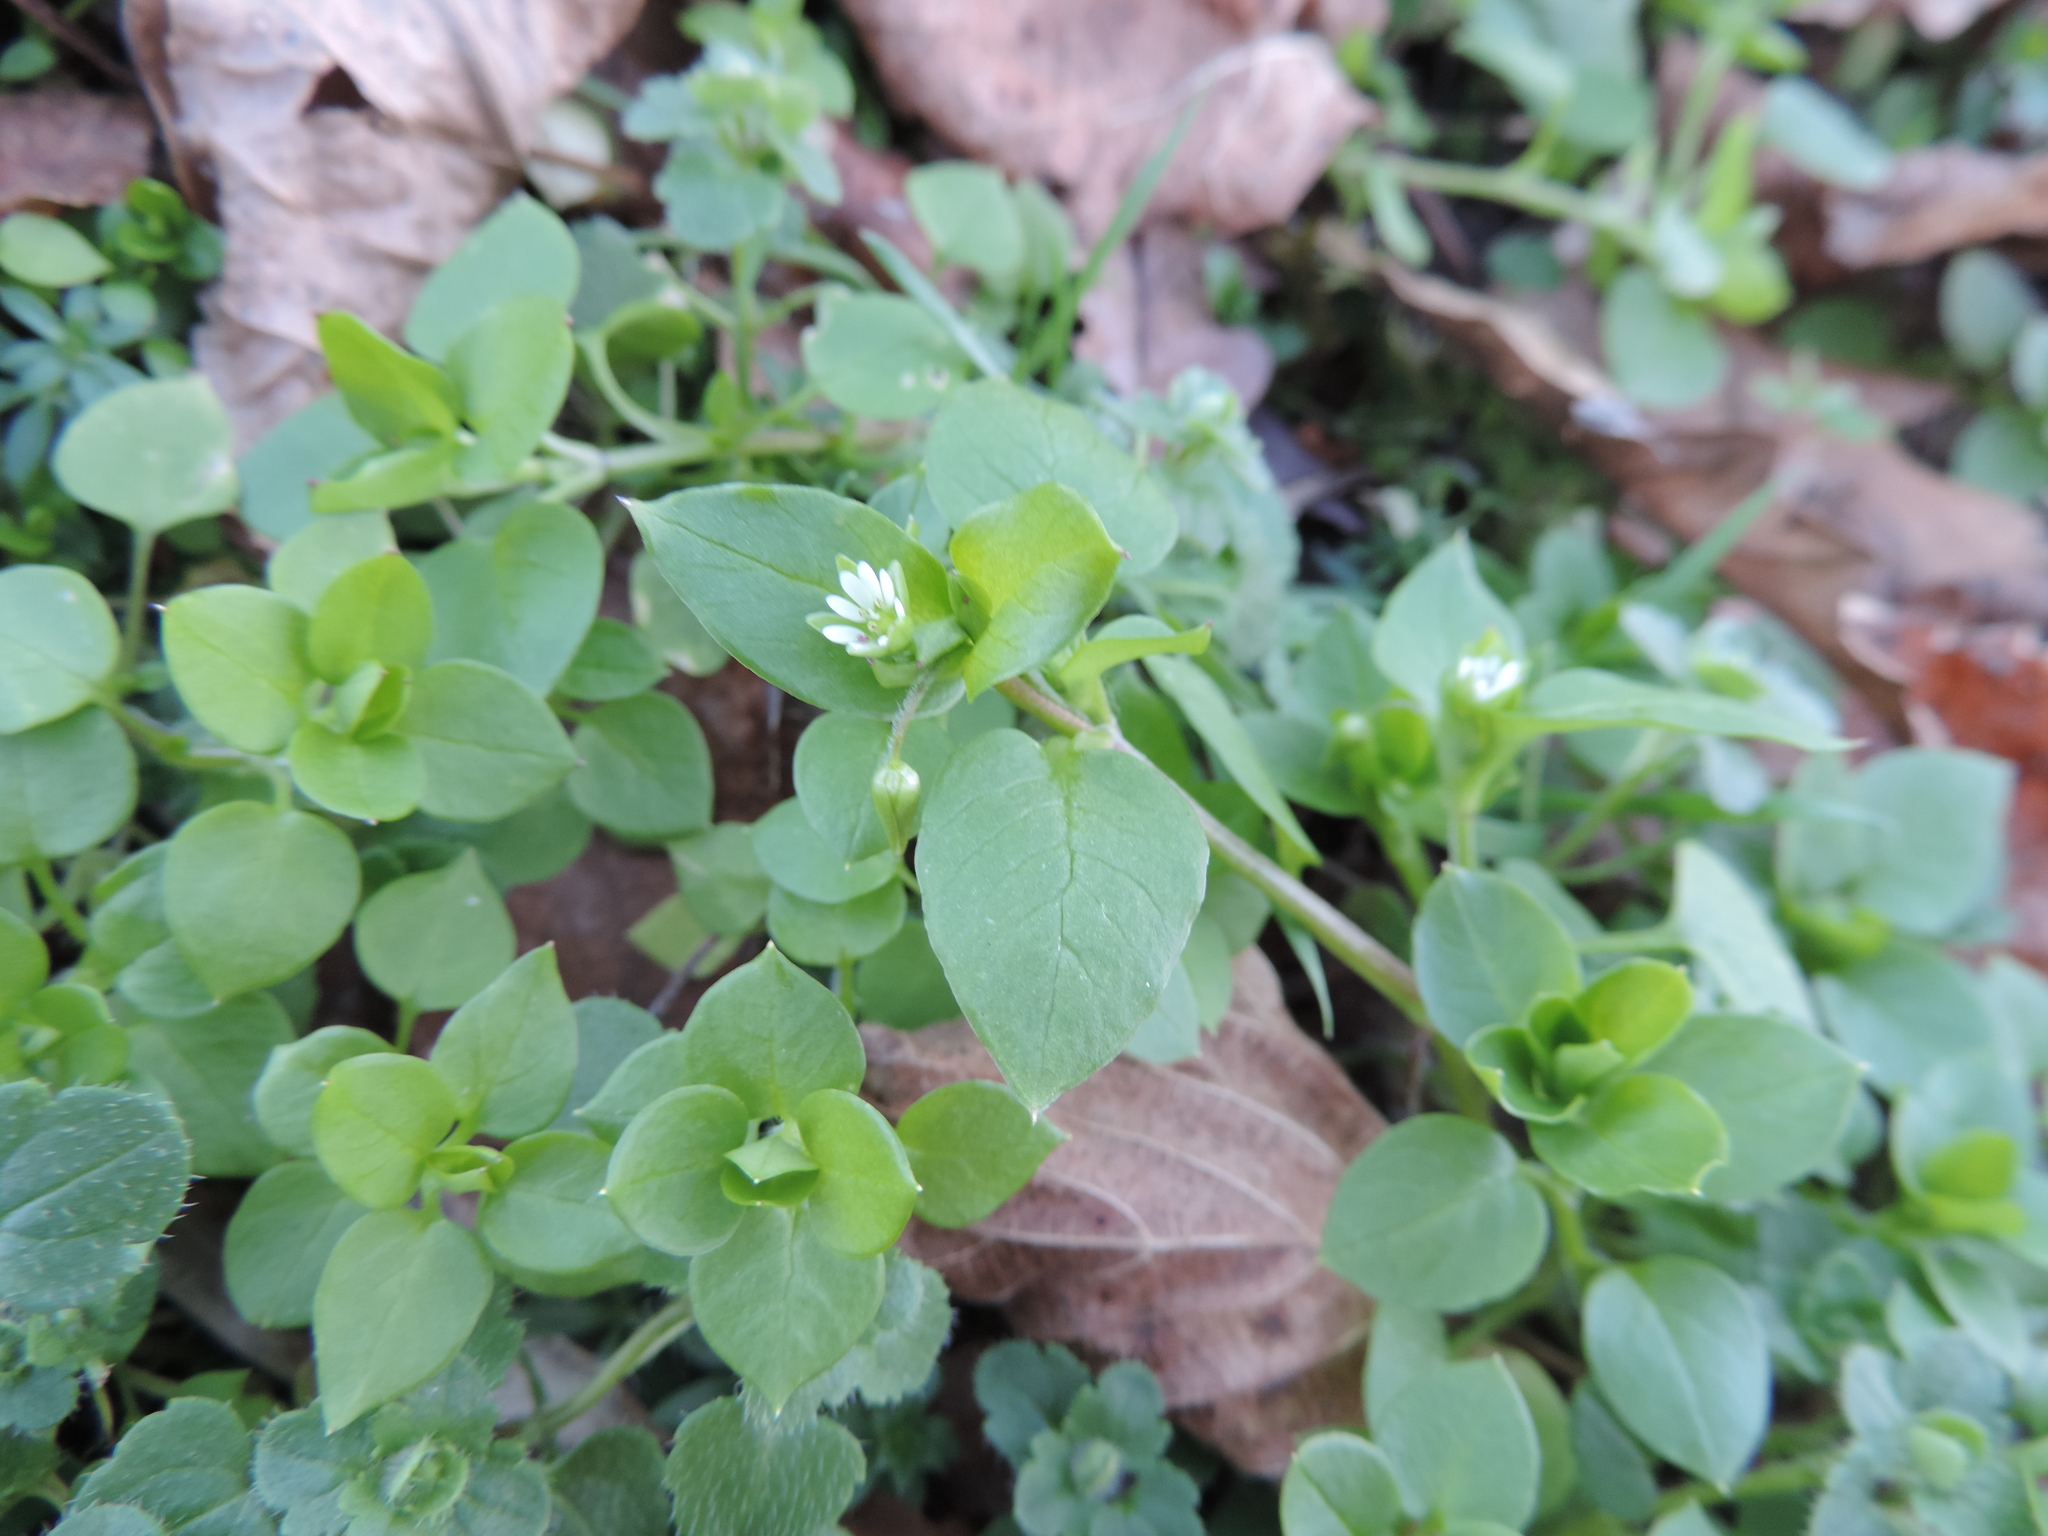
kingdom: Plantae
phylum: Tracheophyta
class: Magnoliopsida
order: Caryophyllales
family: Caryophyllaceae
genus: Stellaria
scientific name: Stellaria media
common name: Common chickweed
